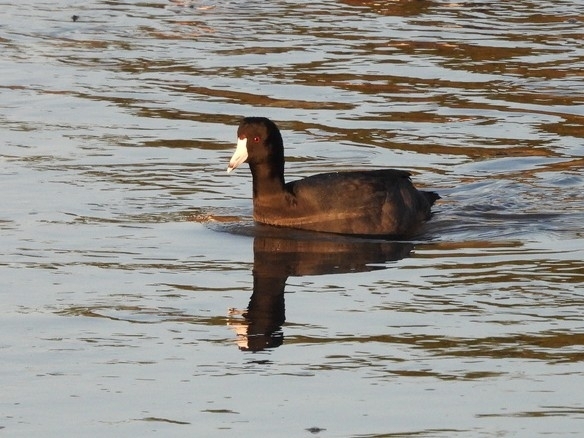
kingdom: Animalia
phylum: Chordata
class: Aves
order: Gruiformes
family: Rallidae
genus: Fulica
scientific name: Fulica americana
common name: American coot
